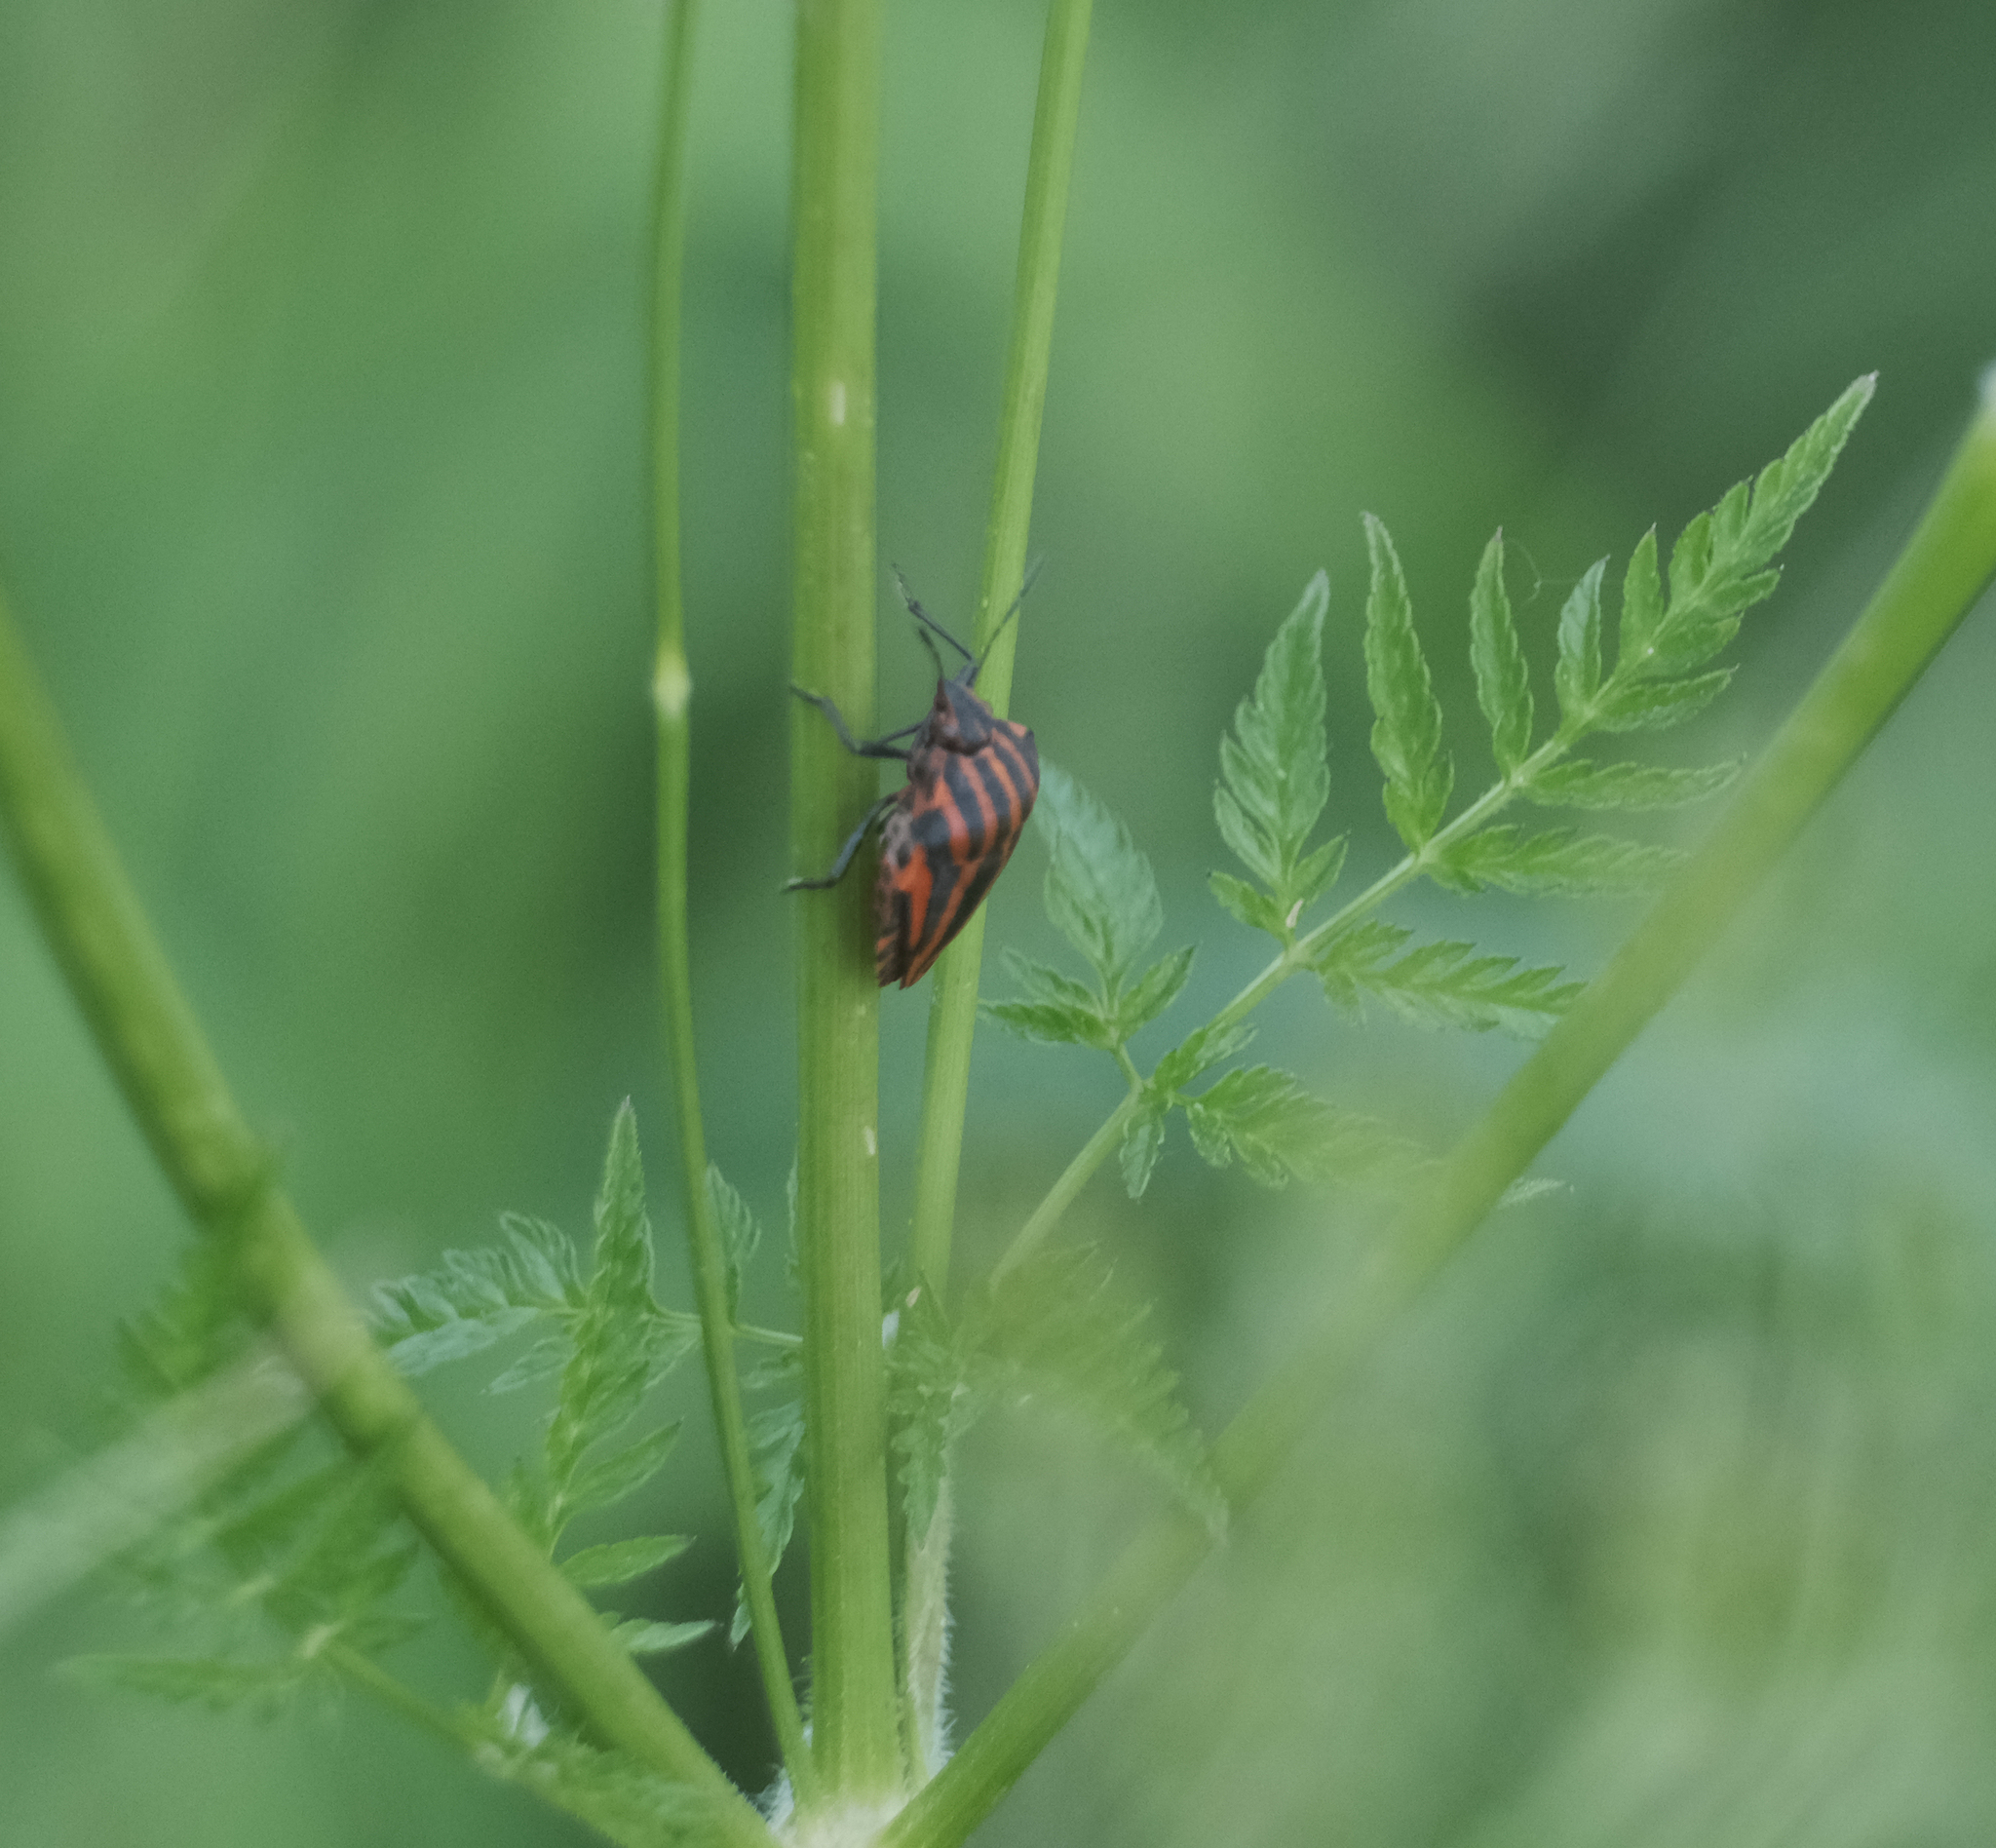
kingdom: Animalia
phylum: Arthropoda
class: Insecta
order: Hemiptera
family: Pentatomidae
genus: Graphosoma
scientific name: Graphosoma italicum
